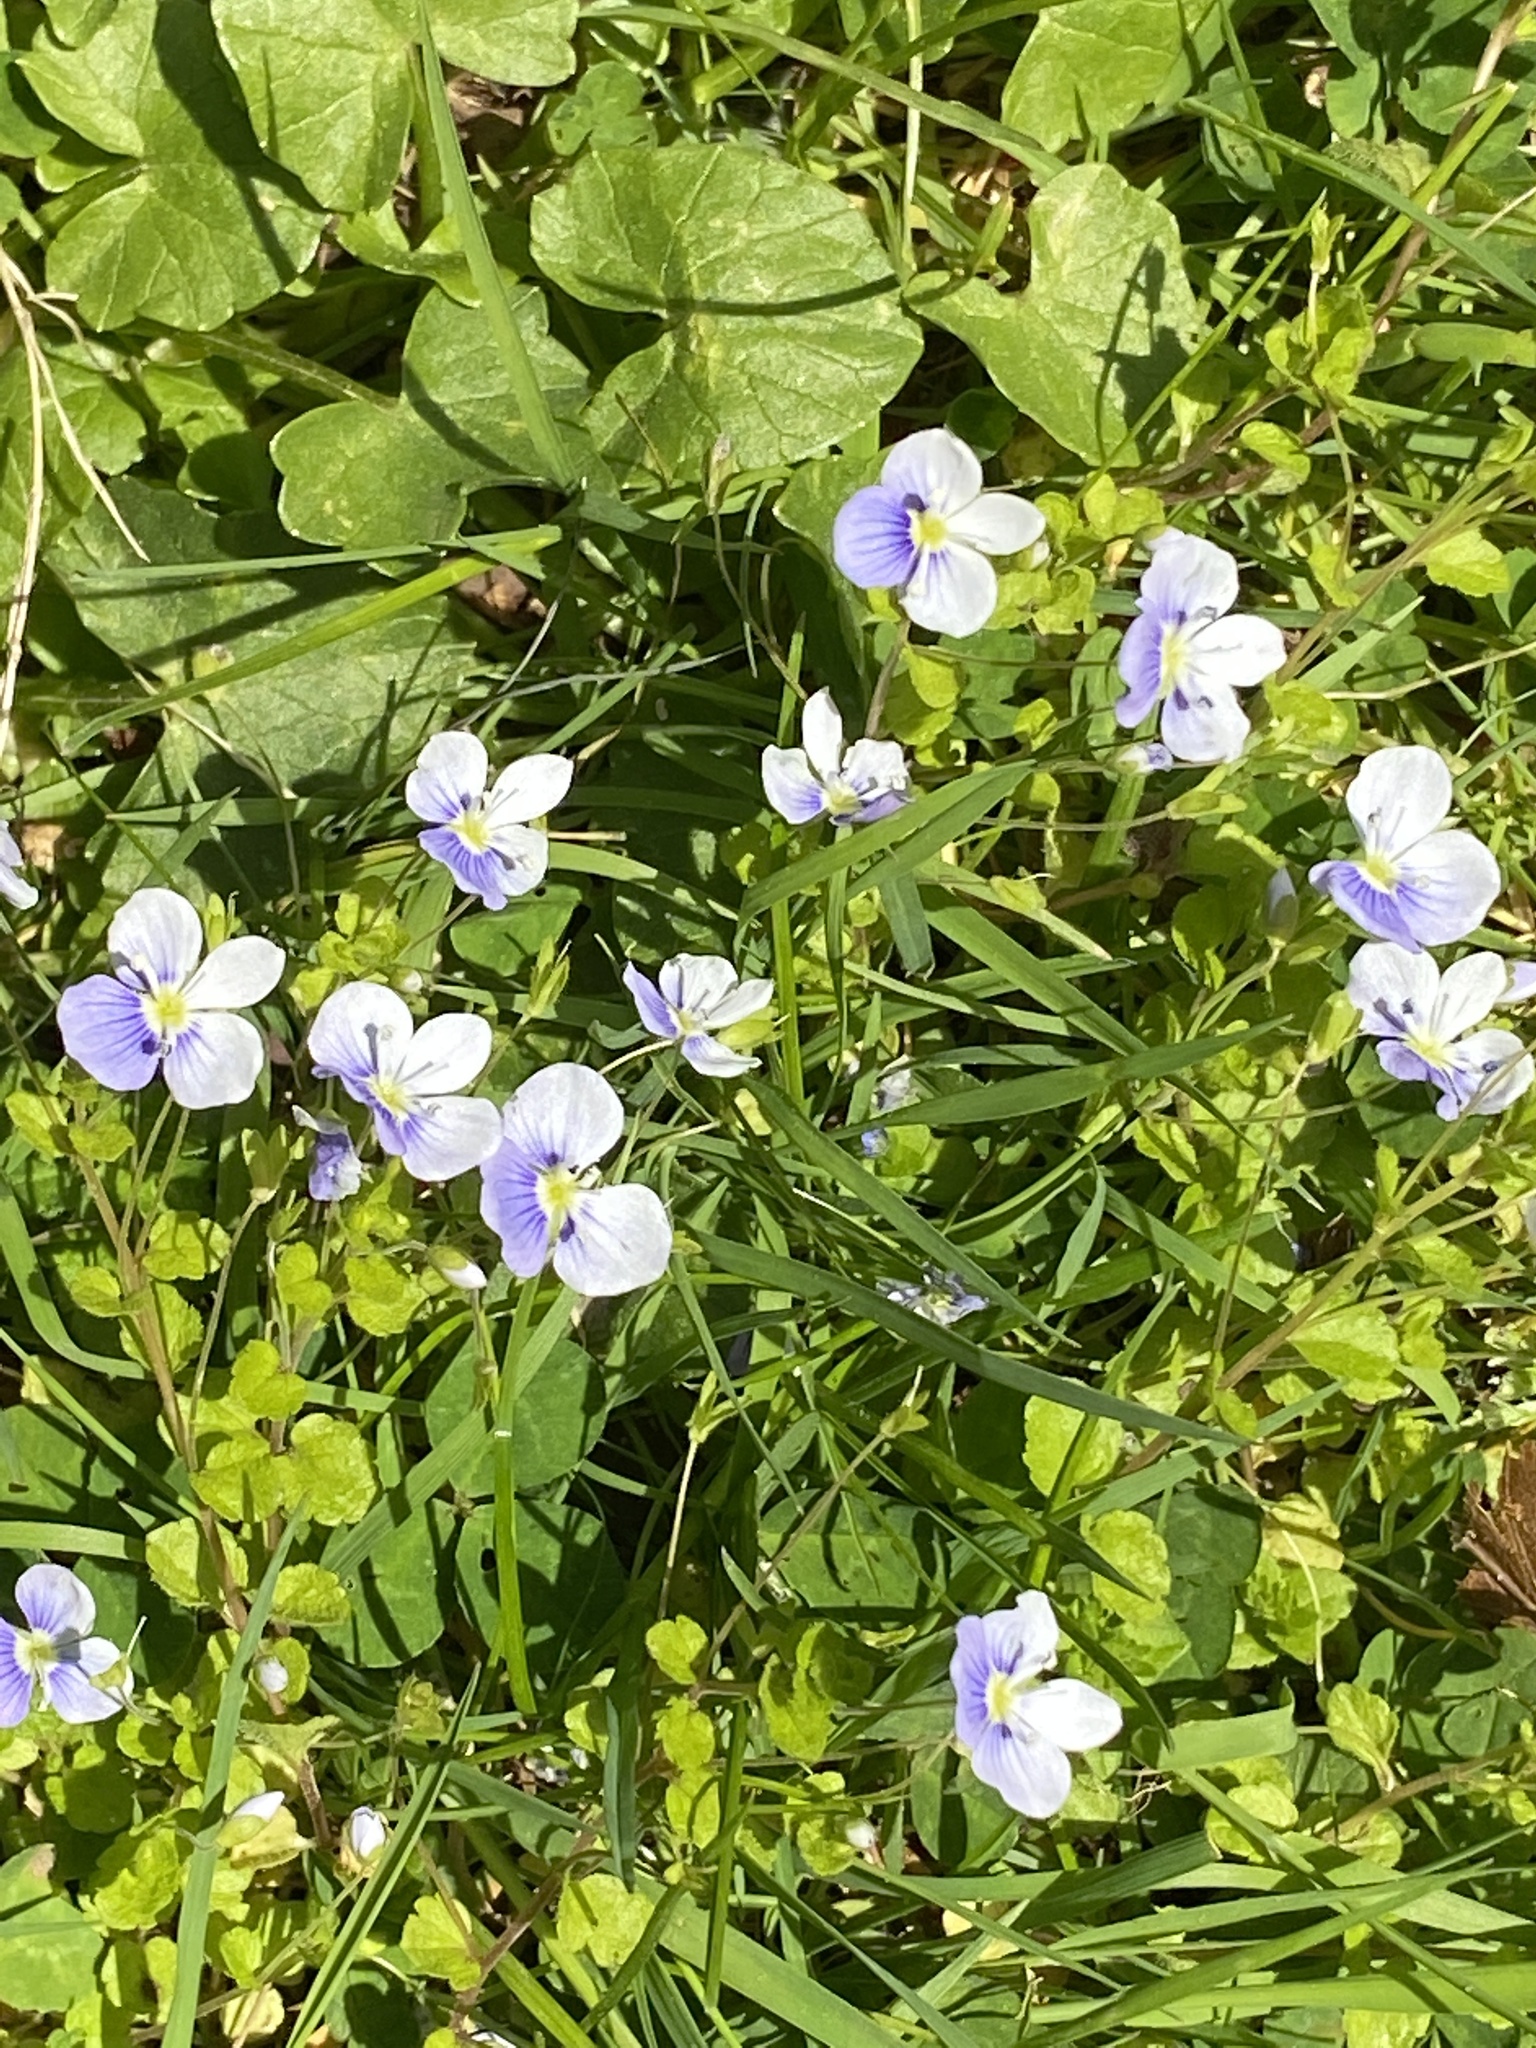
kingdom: Plantae
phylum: Tracheophyta
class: Magnoliopsida
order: Lamiales
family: Plantaginaceae
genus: Veronica
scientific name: Veronica filiformis
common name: Slender speedwell
